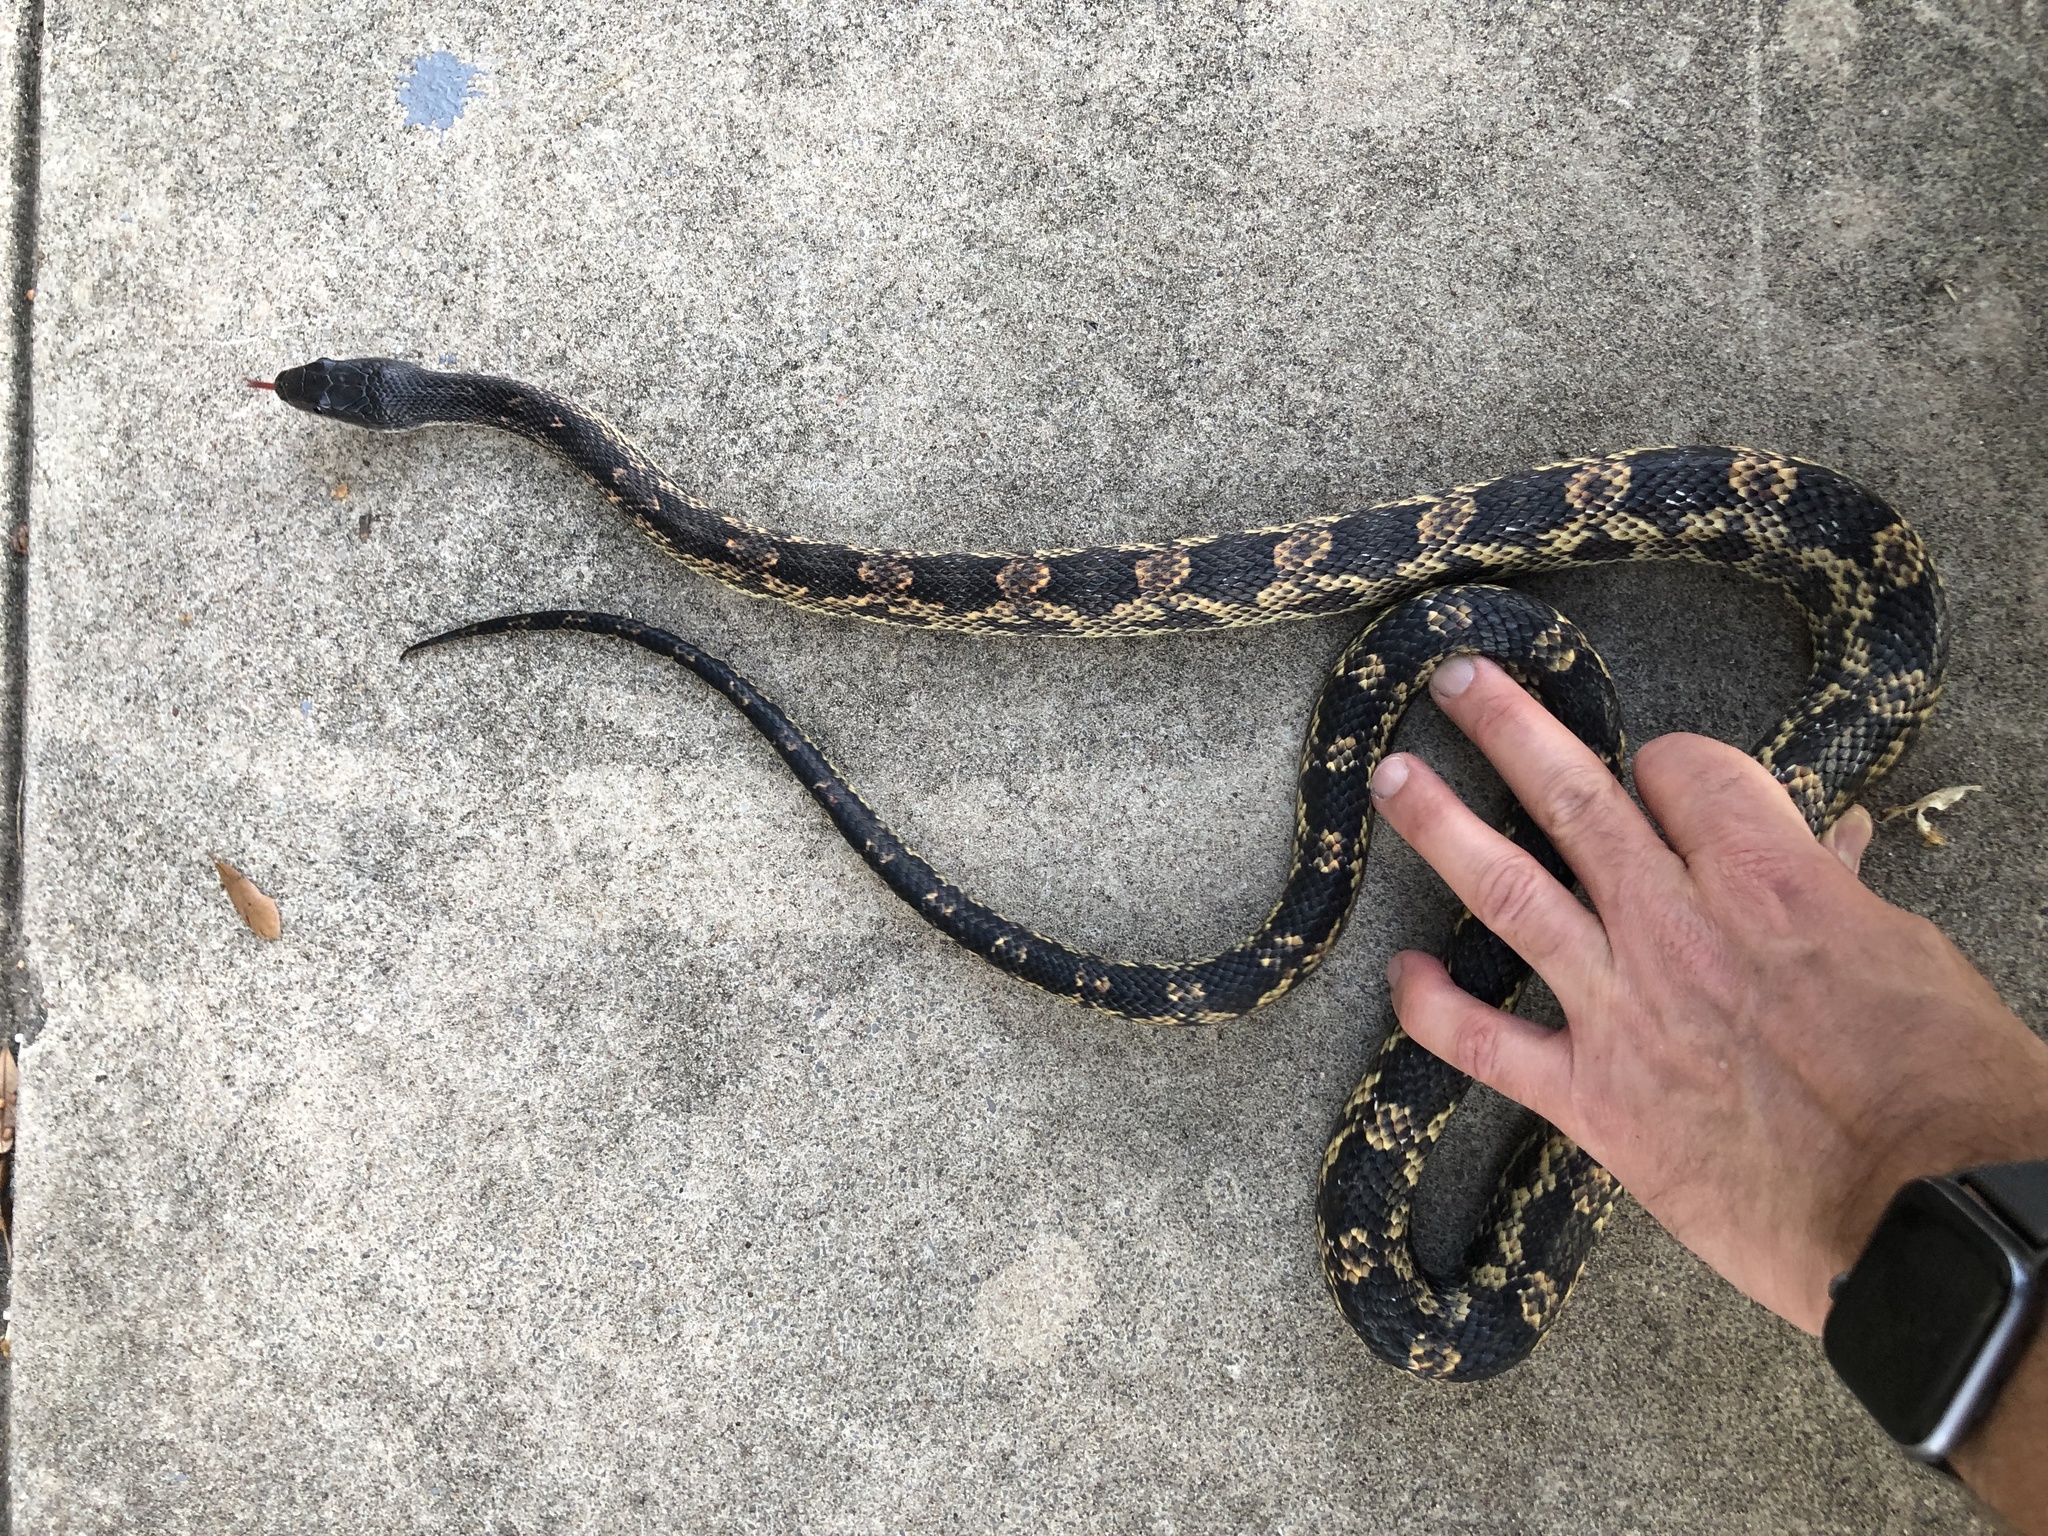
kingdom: Animalia
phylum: Chordata
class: Squamata
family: Colubridae
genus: Pantherophis
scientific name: Pantherophis obsoletus
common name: Black rat snake
